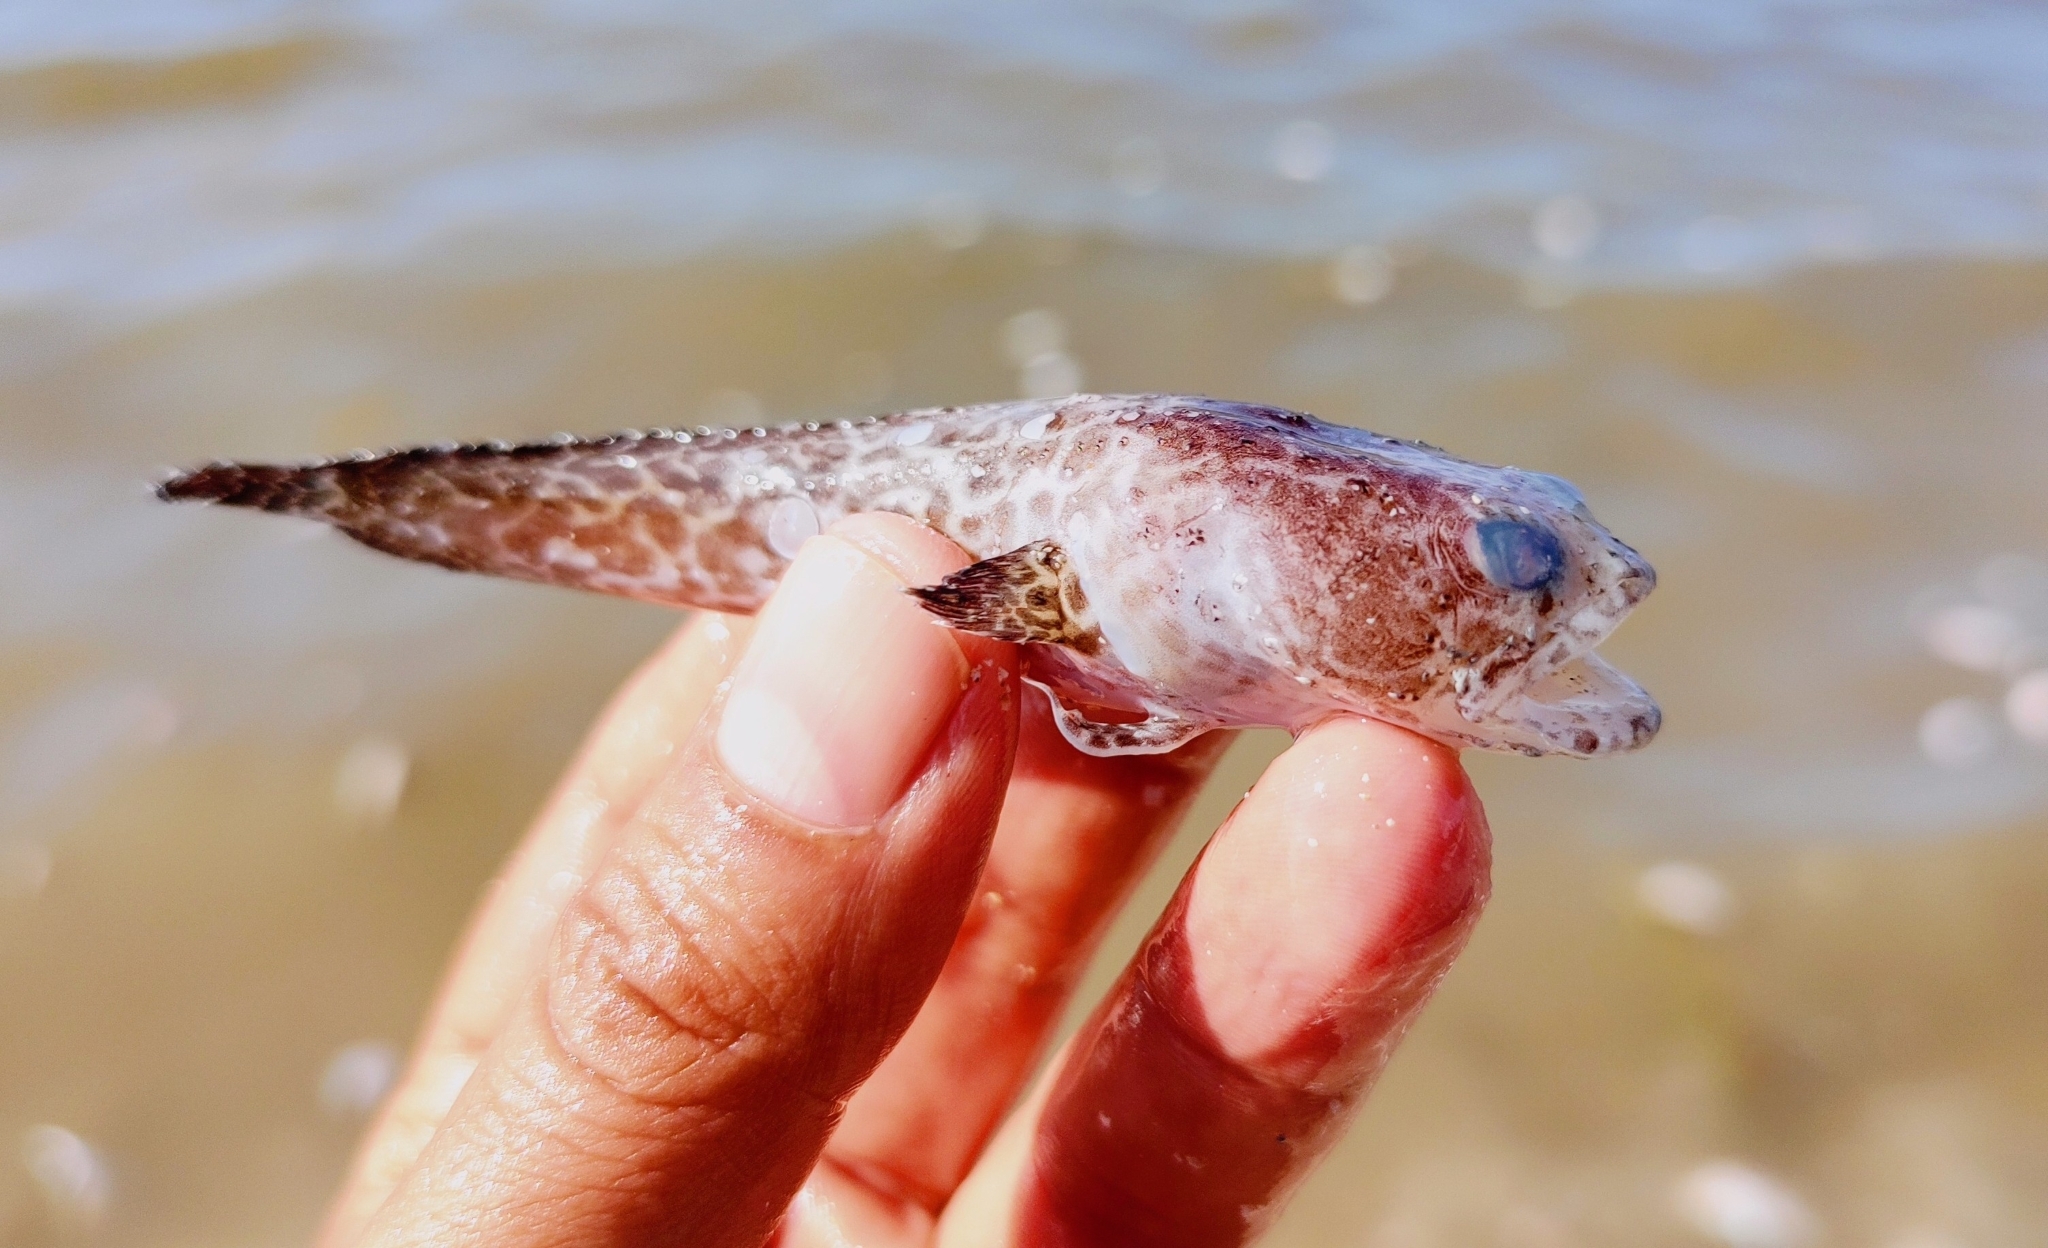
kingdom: Animalia
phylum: Chordata
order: Batrachoidiformes
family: Batrachoididae
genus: Sanopus
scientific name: Sanopus reticulatus
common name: Reticulated toadfish
